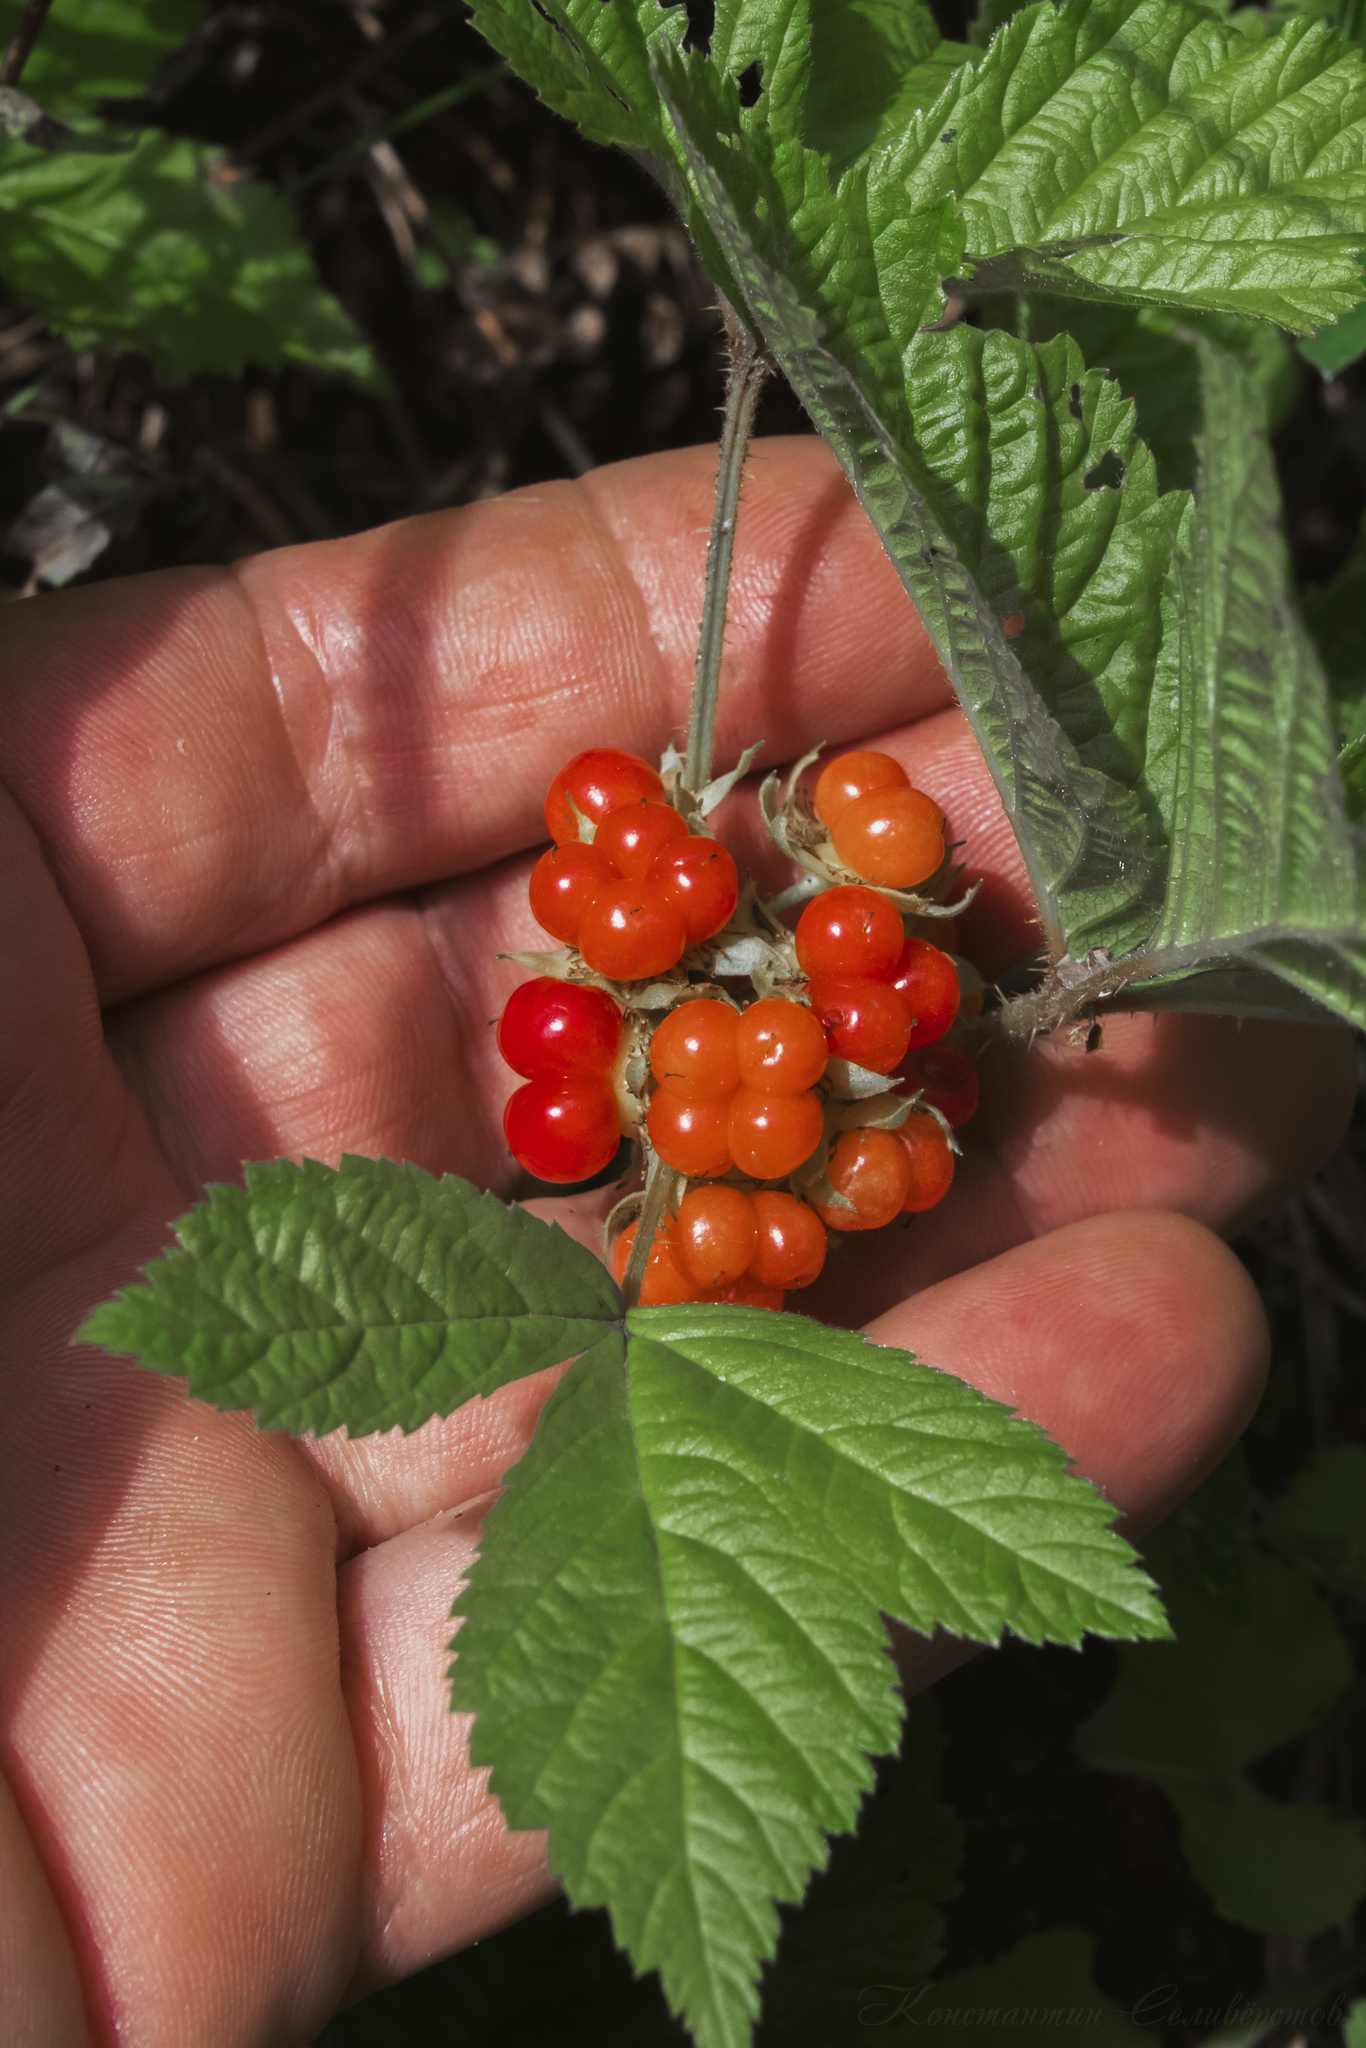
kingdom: Plantae
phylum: Tracheophyta
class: Magnoliopsida
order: Rosales
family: Rosaceae
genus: Rubus
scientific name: Rubus saxatilis
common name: Stone bramble
